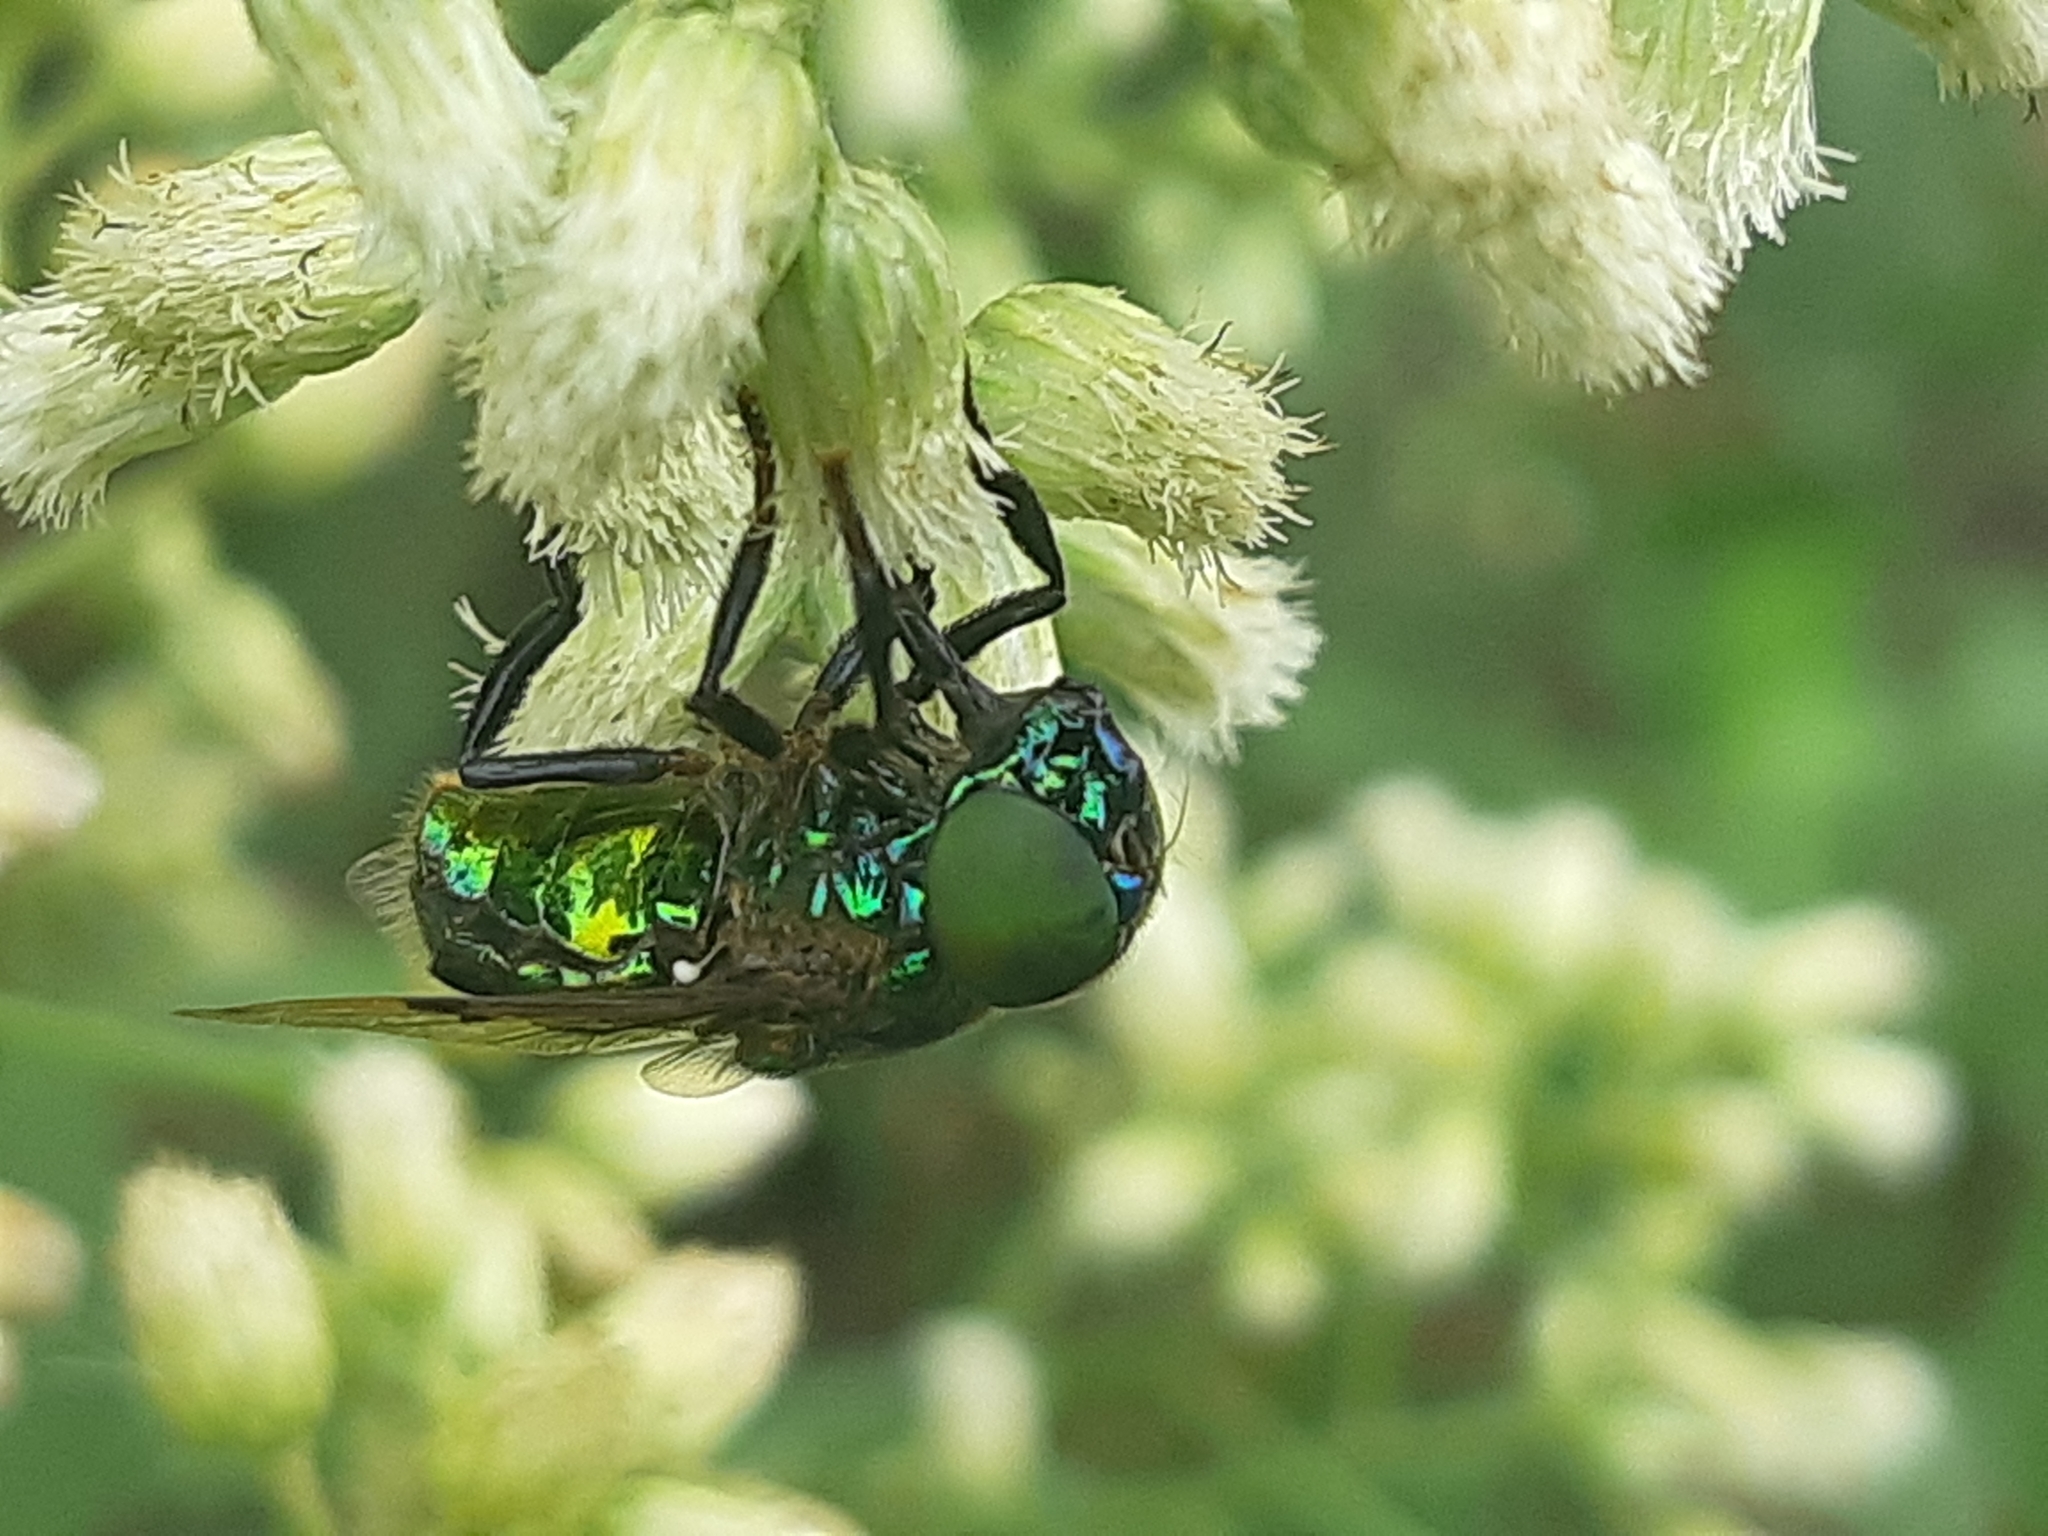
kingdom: Animalia
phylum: Arthropoda
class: Insecta
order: Diptera
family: Syrphidae
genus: Ornidia
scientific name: Ornidia obesa
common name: Syrphid fly
